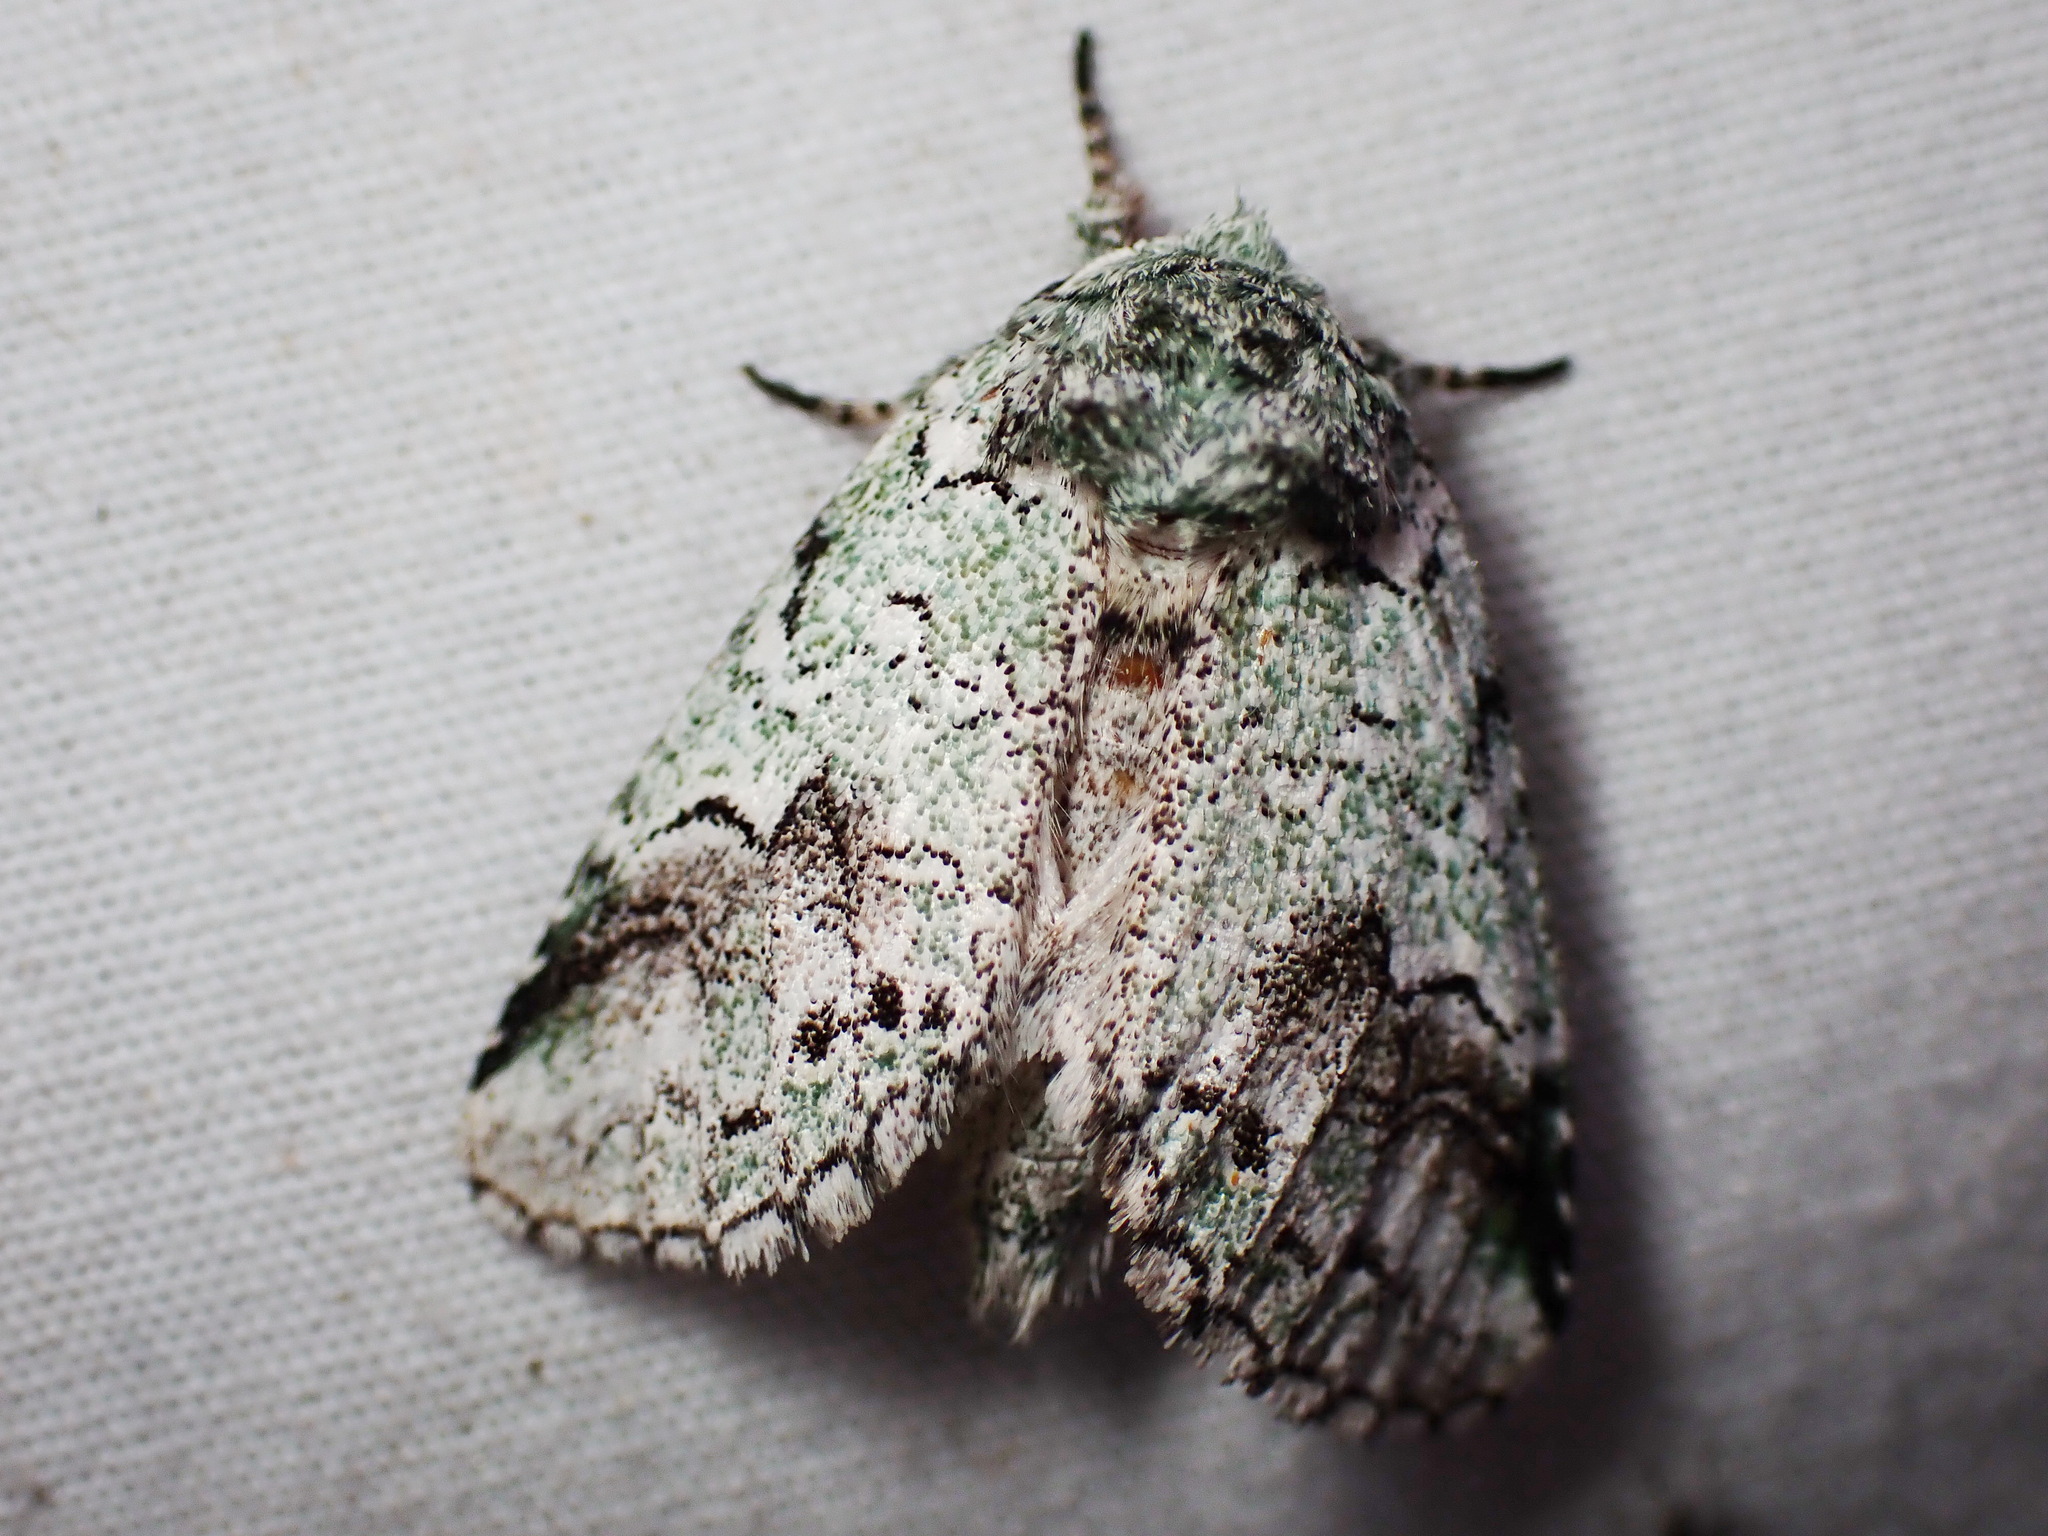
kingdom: Animalia
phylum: Arthropoda
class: Insecta
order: Lepidoptera
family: Notodontidae
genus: Litodonta
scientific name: Litodonta hydromeli
